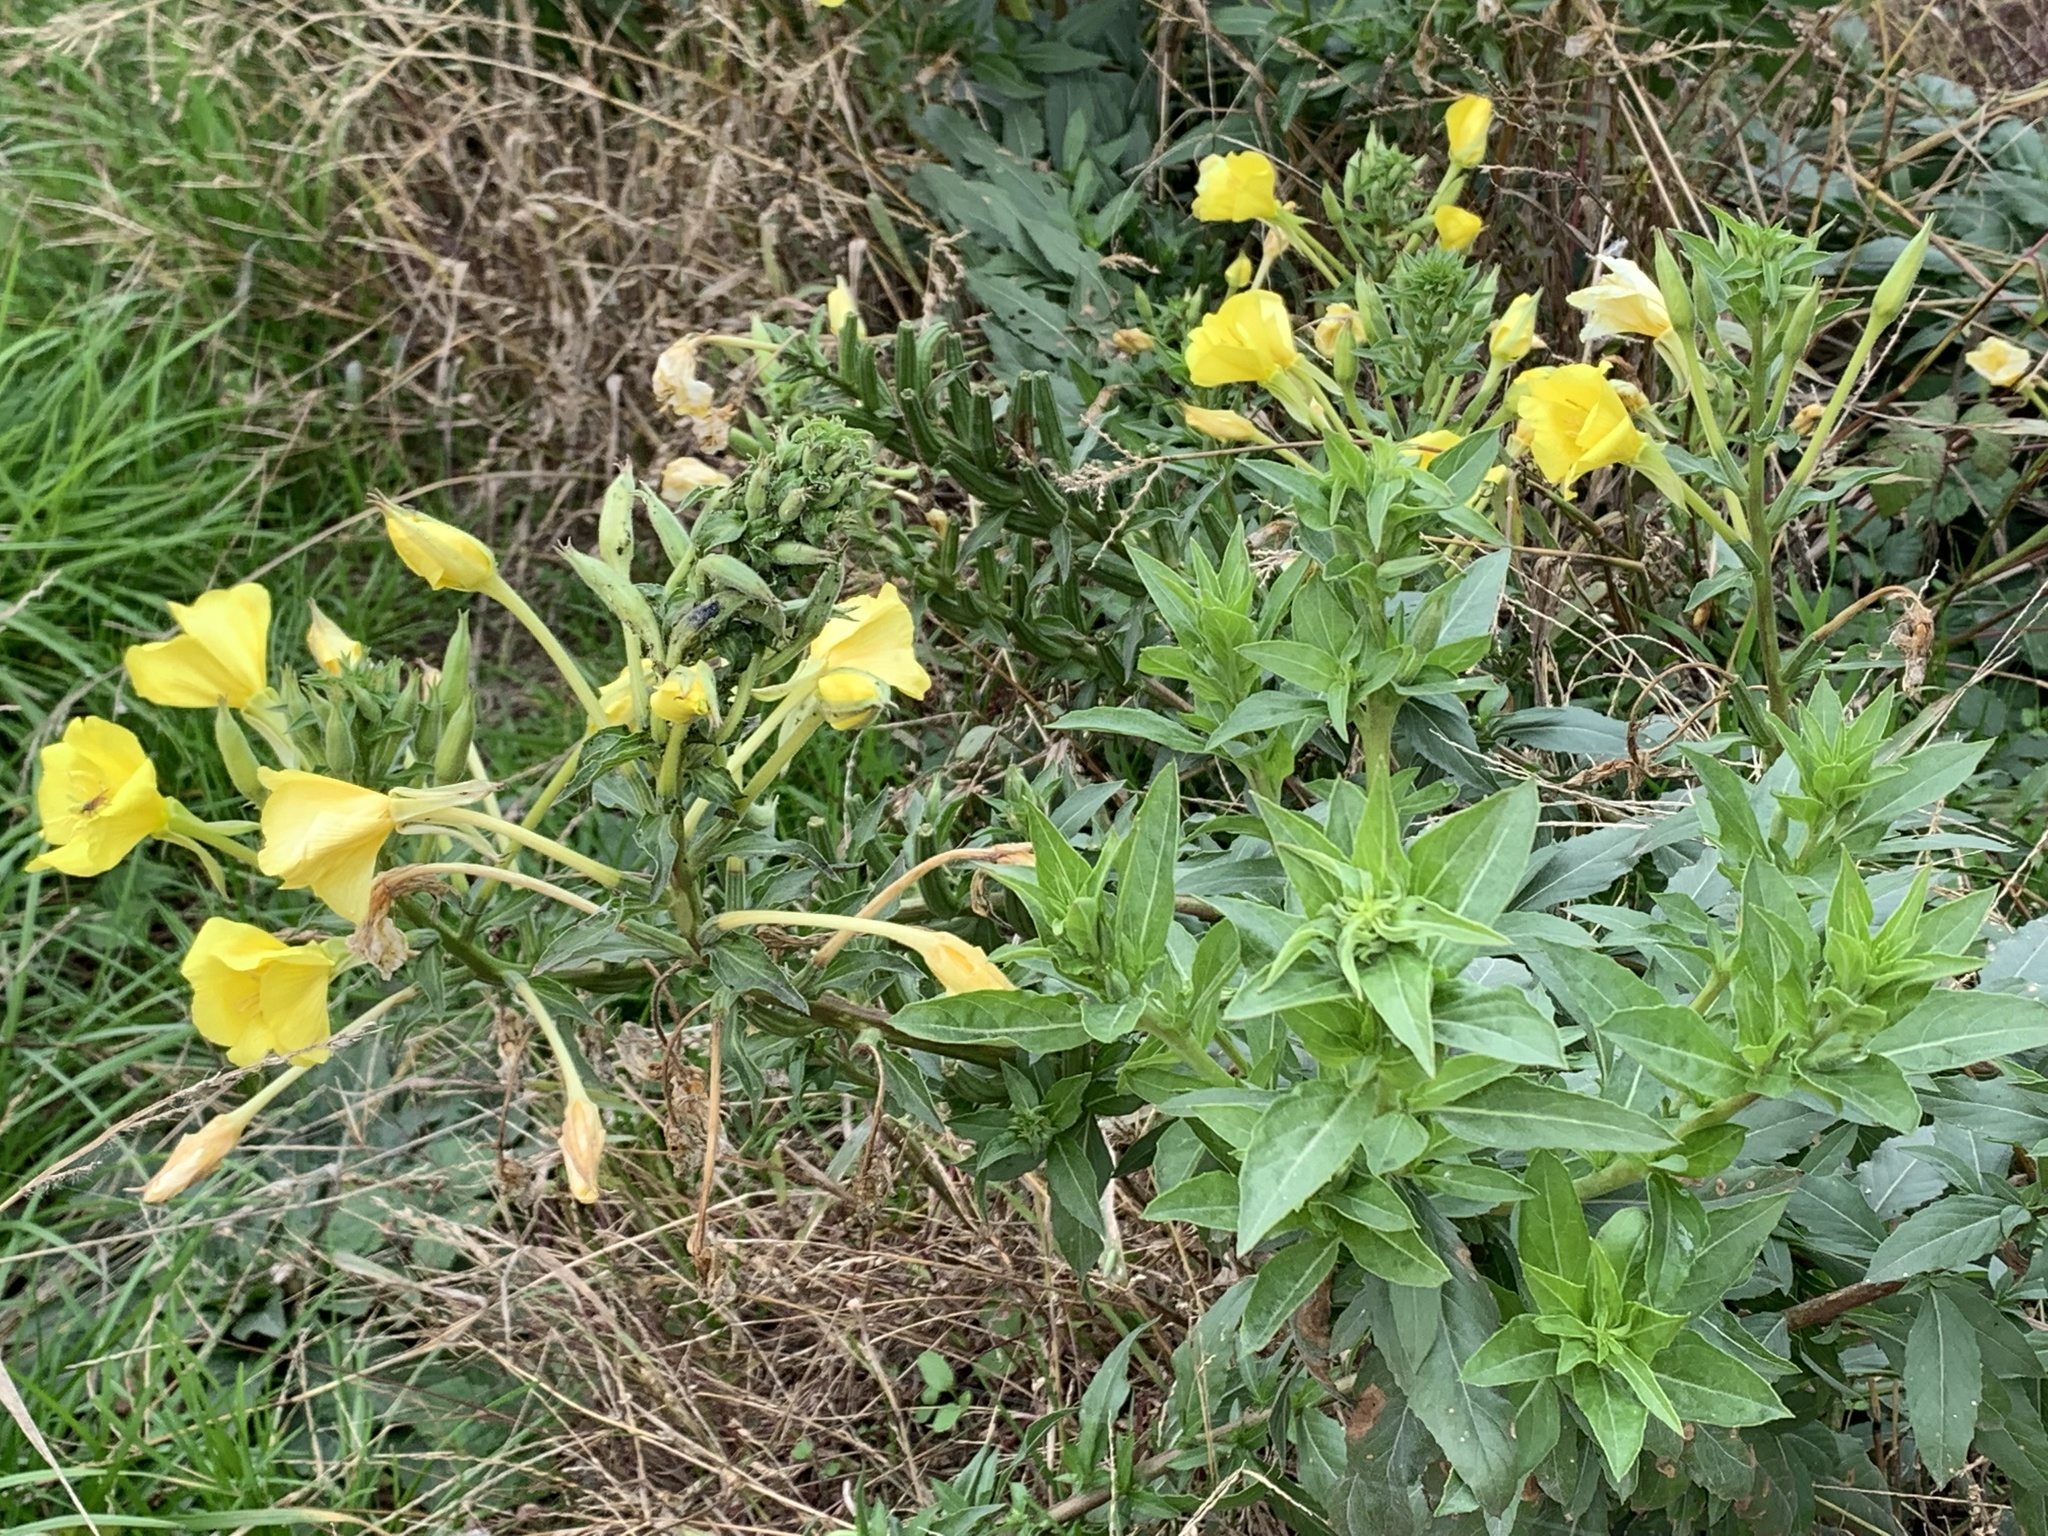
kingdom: Plantae
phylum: Tracheophyta
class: Magnoliopsida
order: Myrtales
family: Onagraceae
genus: Oenothera
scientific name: Oenothera stucchii
